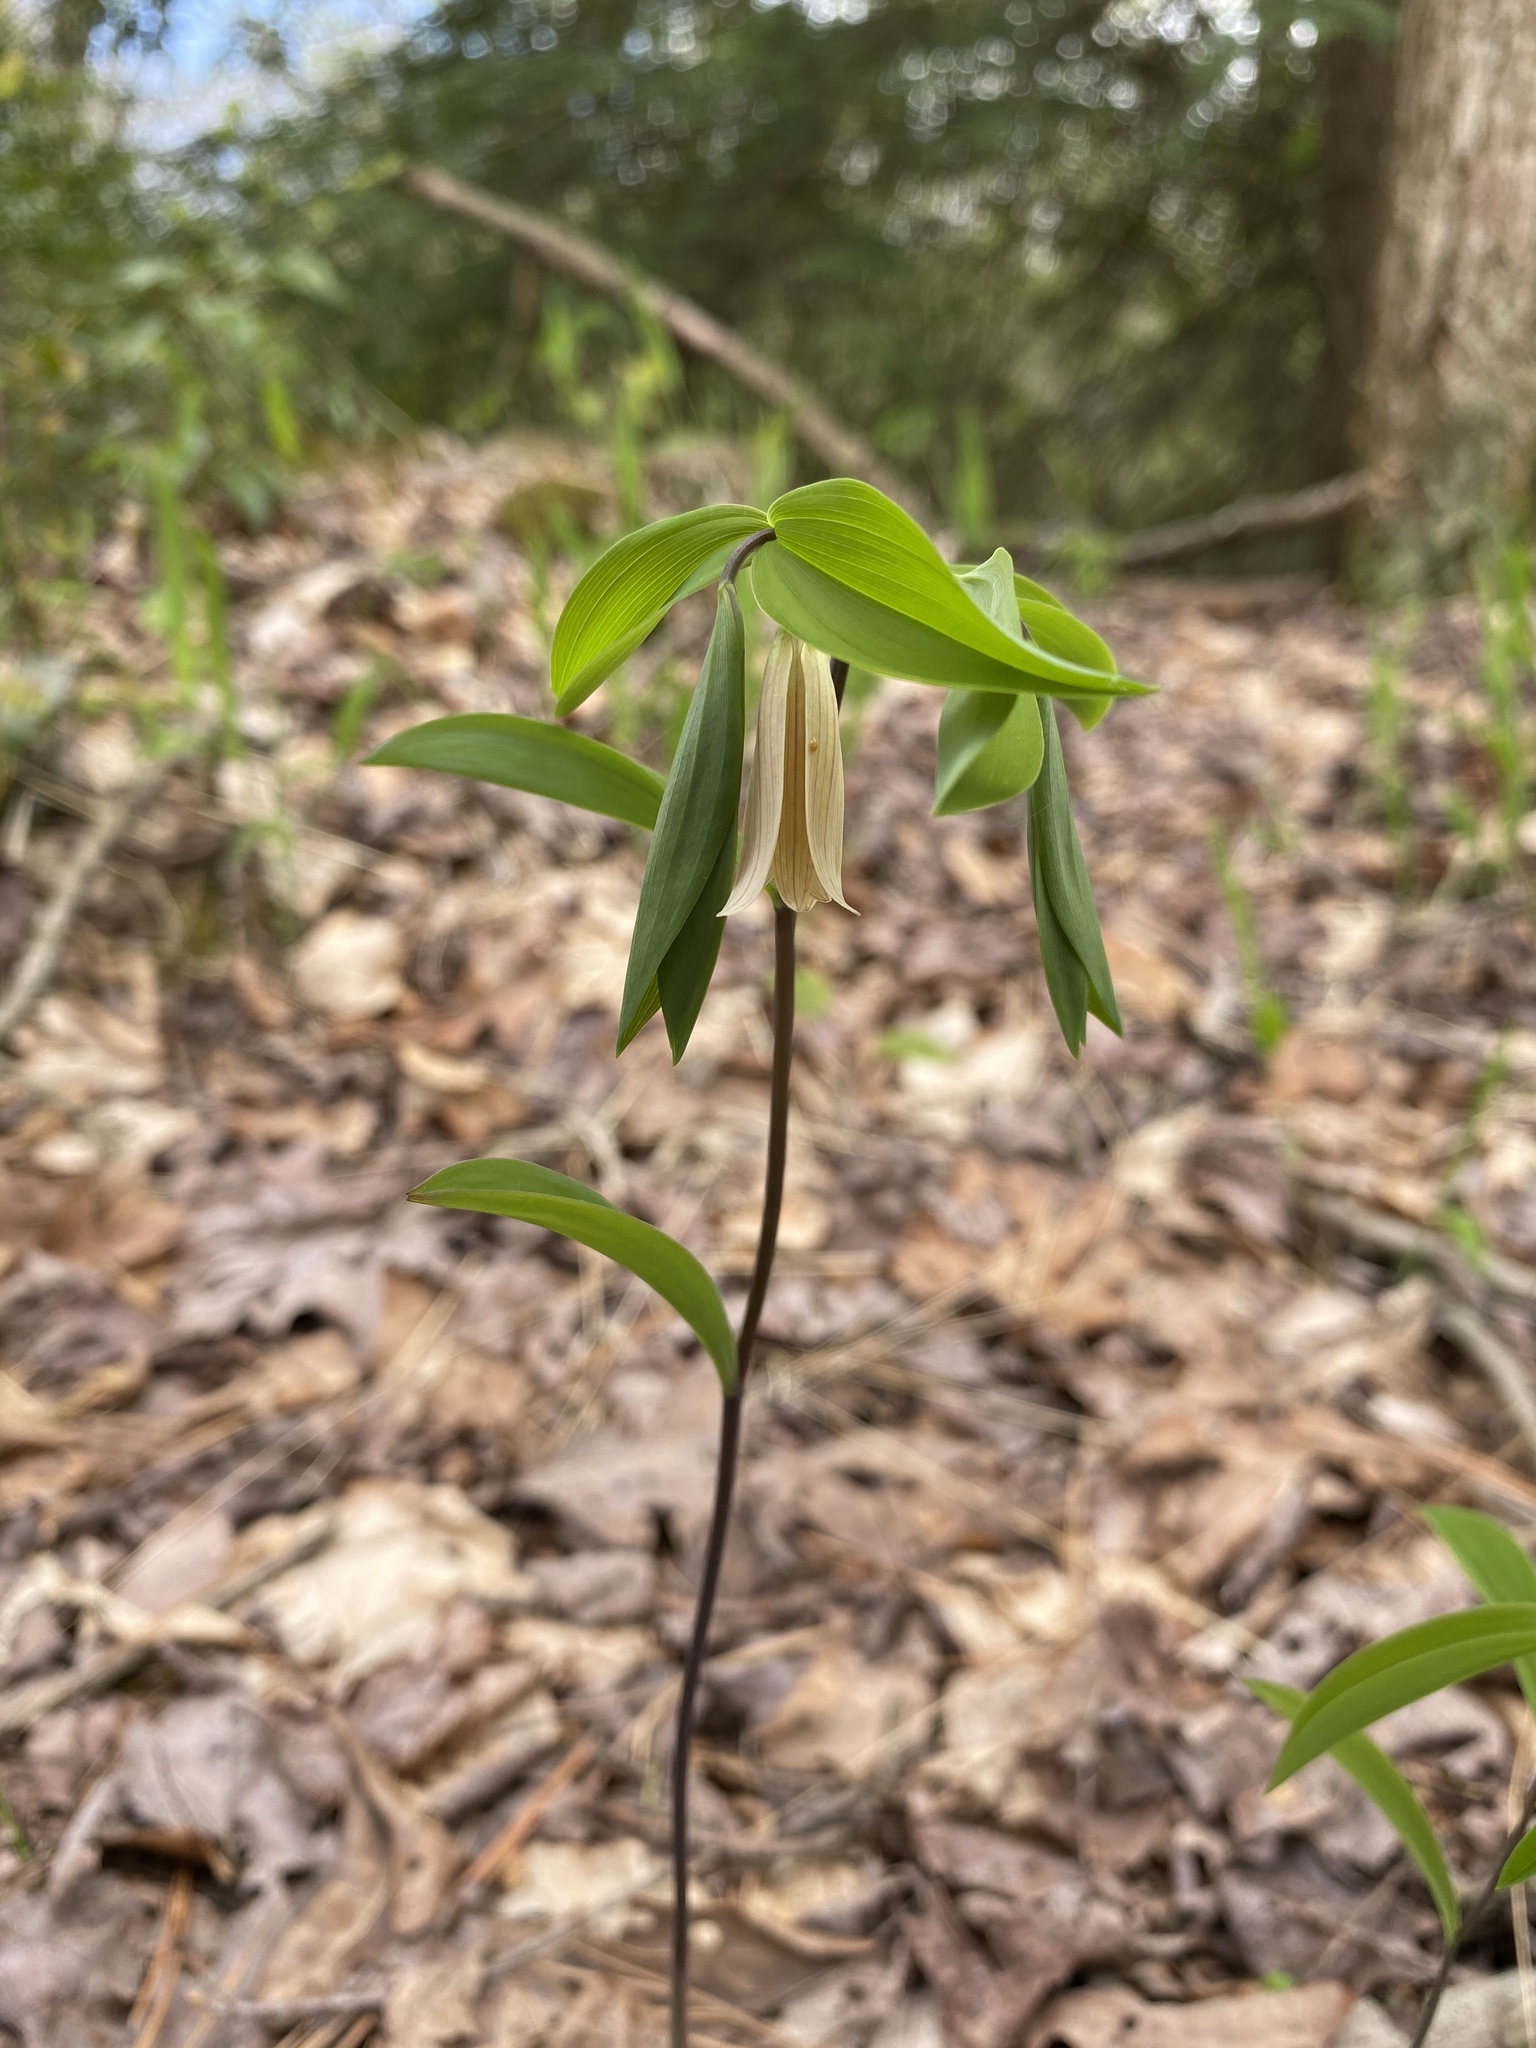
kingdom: Plantae
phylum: Tracheophyta
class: Liliopsida
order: Liliales
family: Colchicaceae
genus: Uvularia
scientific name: Uvularia sessilifolia
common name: Straw-lily
